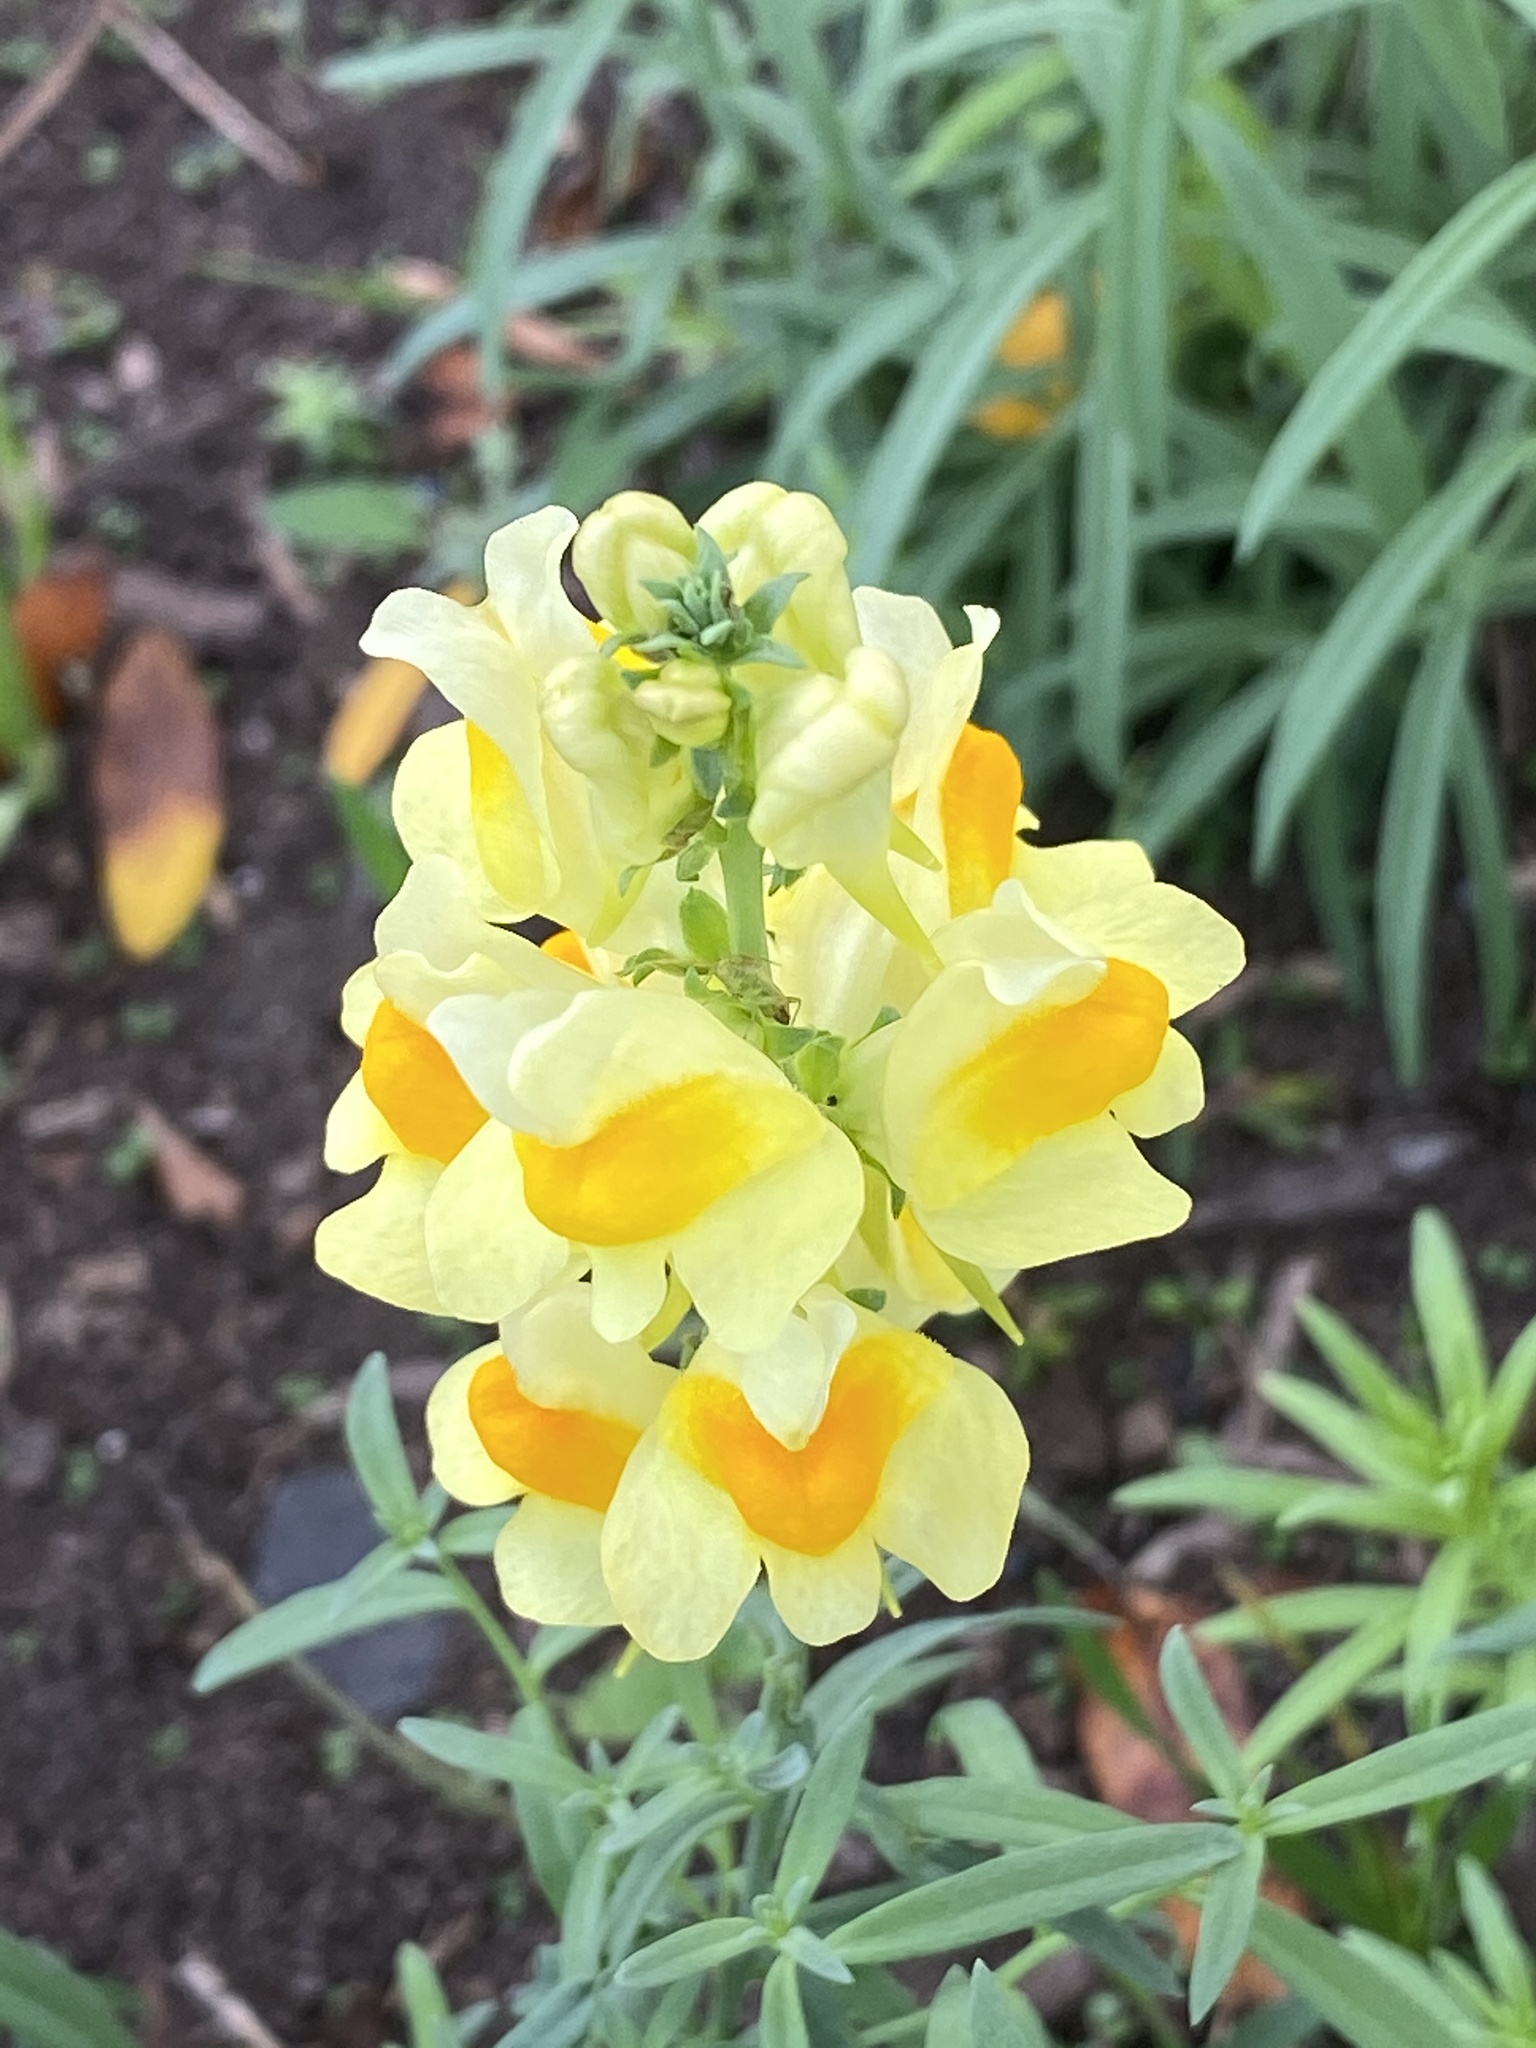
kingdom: Plantae
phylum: Tracheophyta
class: Magnoliopsida
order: Lamiales
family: Plantaginaceae
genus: Linaria
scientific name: Linaria vulgaris
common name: Butter and eggs
